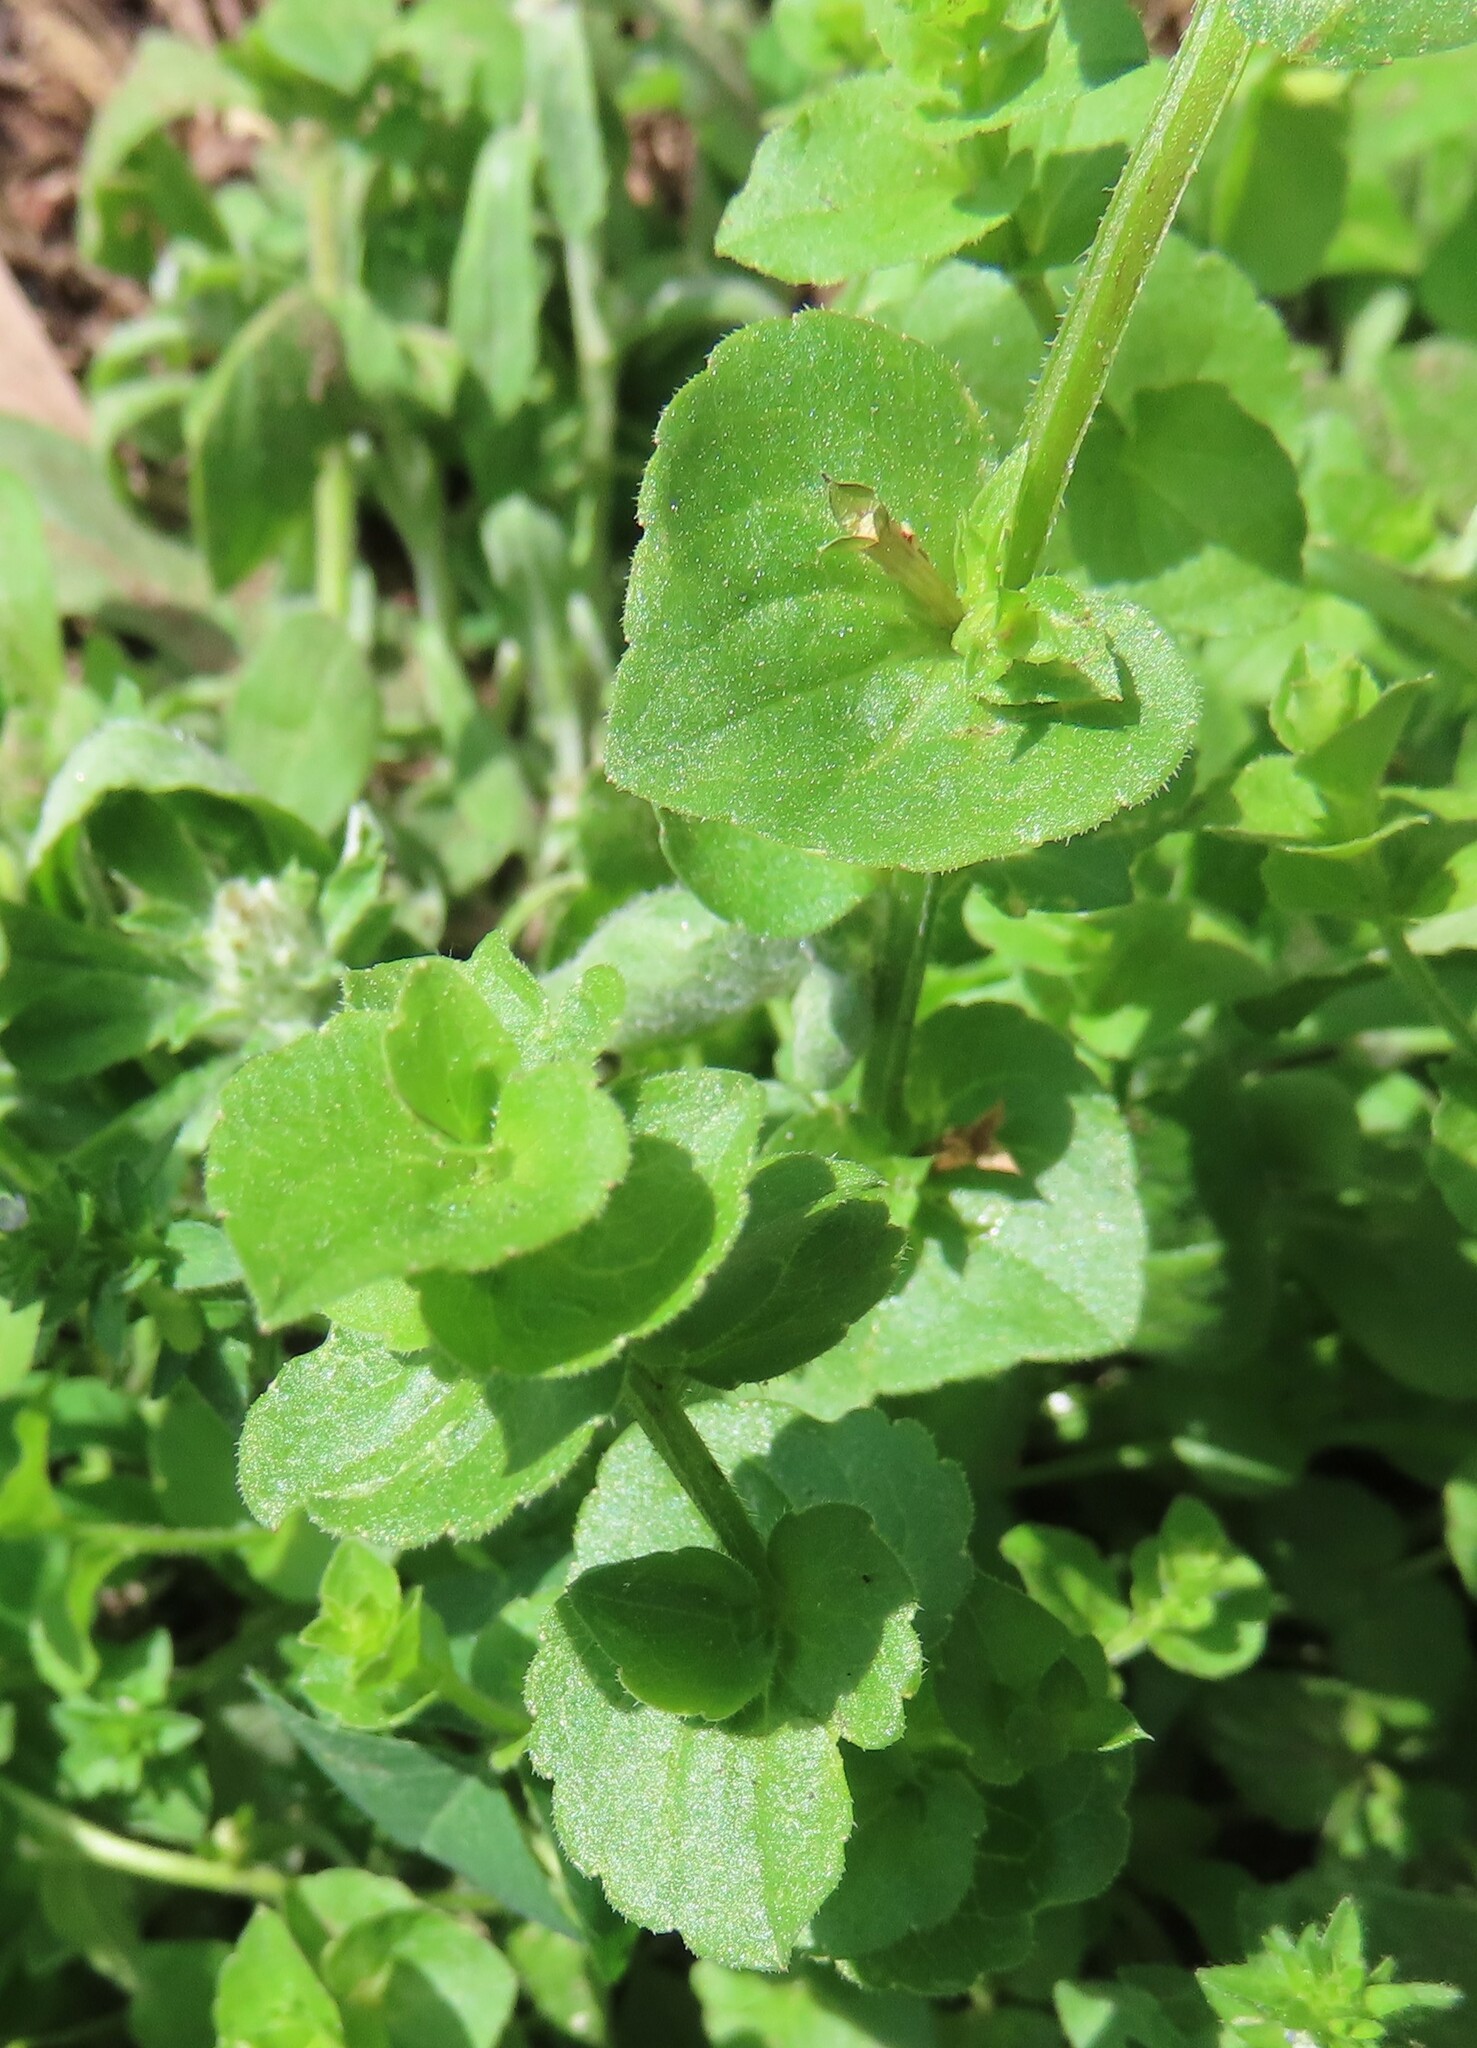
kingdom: Plantae
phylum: Tracheophyta
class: Magnoliopsida
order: Asterales
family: Campanulaceae
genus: Triodanis
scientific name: Triodanis perfoliata
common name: Clasping venus' looking-glass
